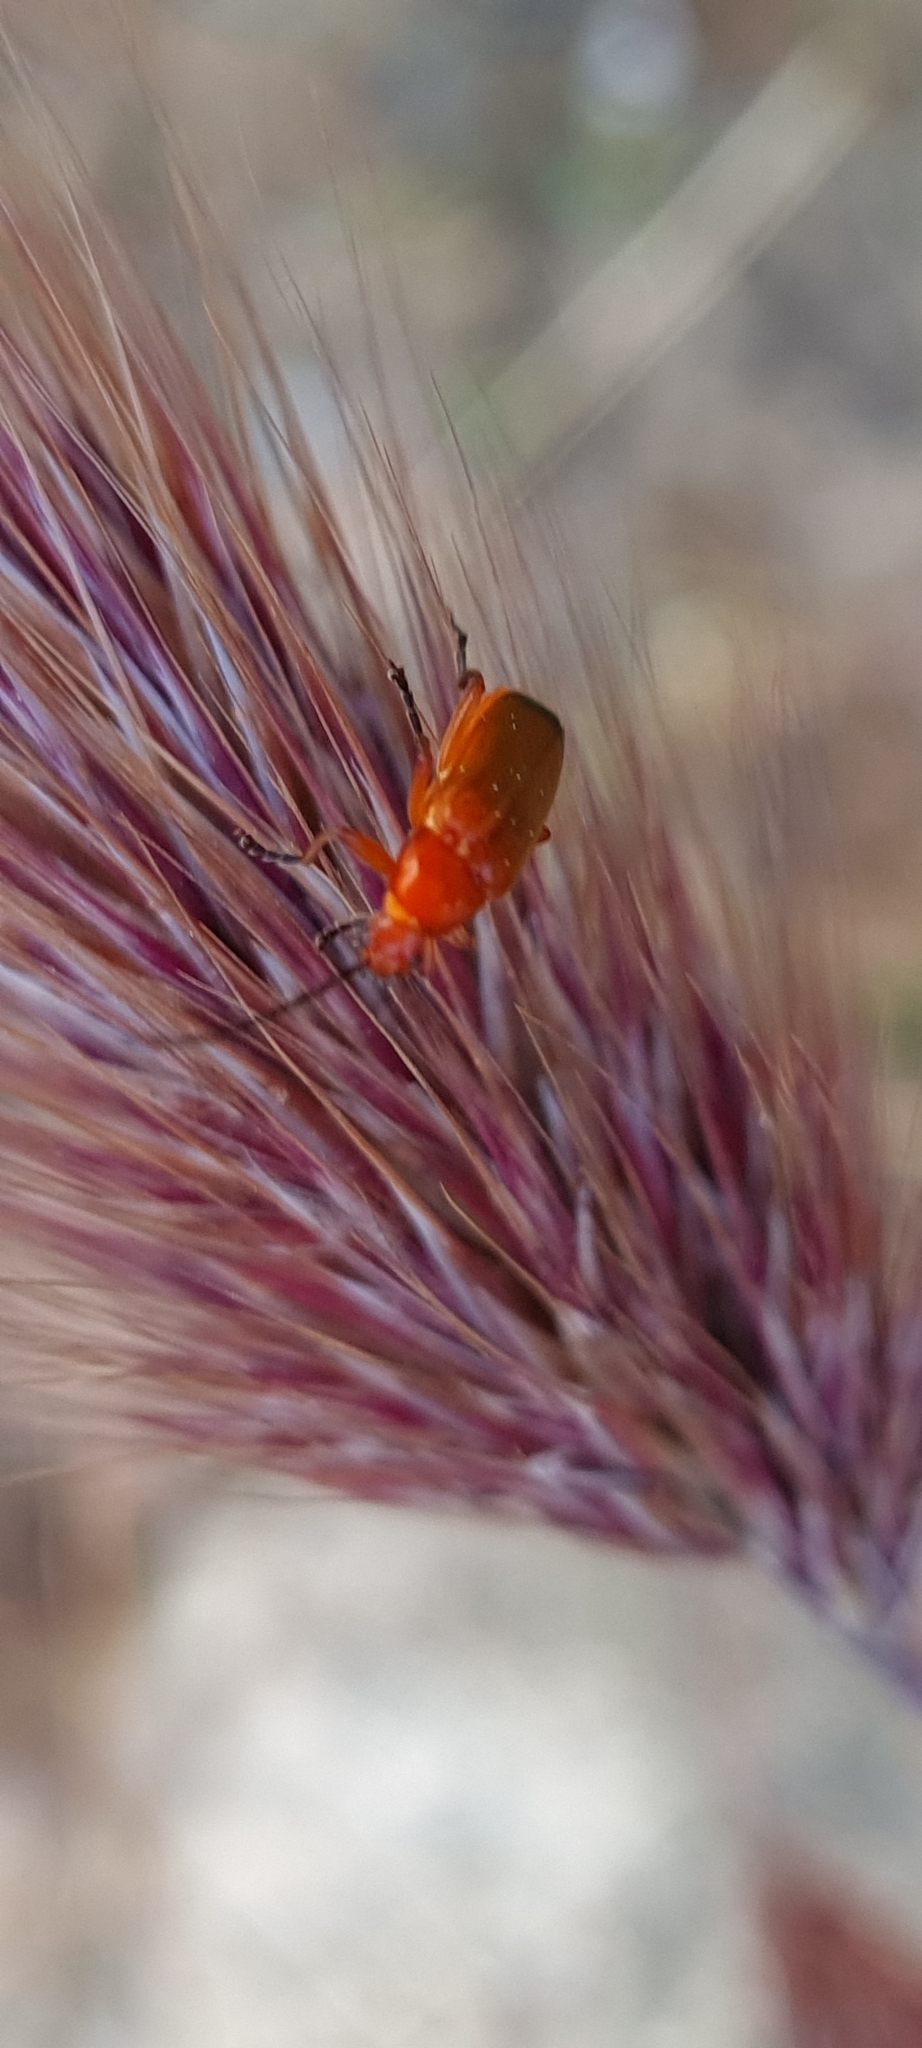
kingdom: Animalia
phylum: Arthropoda
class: Insecta
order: Coleoptera
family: Cantharidae
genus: Rhagonycha
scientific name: Rhagonycha fulva
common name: Common red soldier beetle
